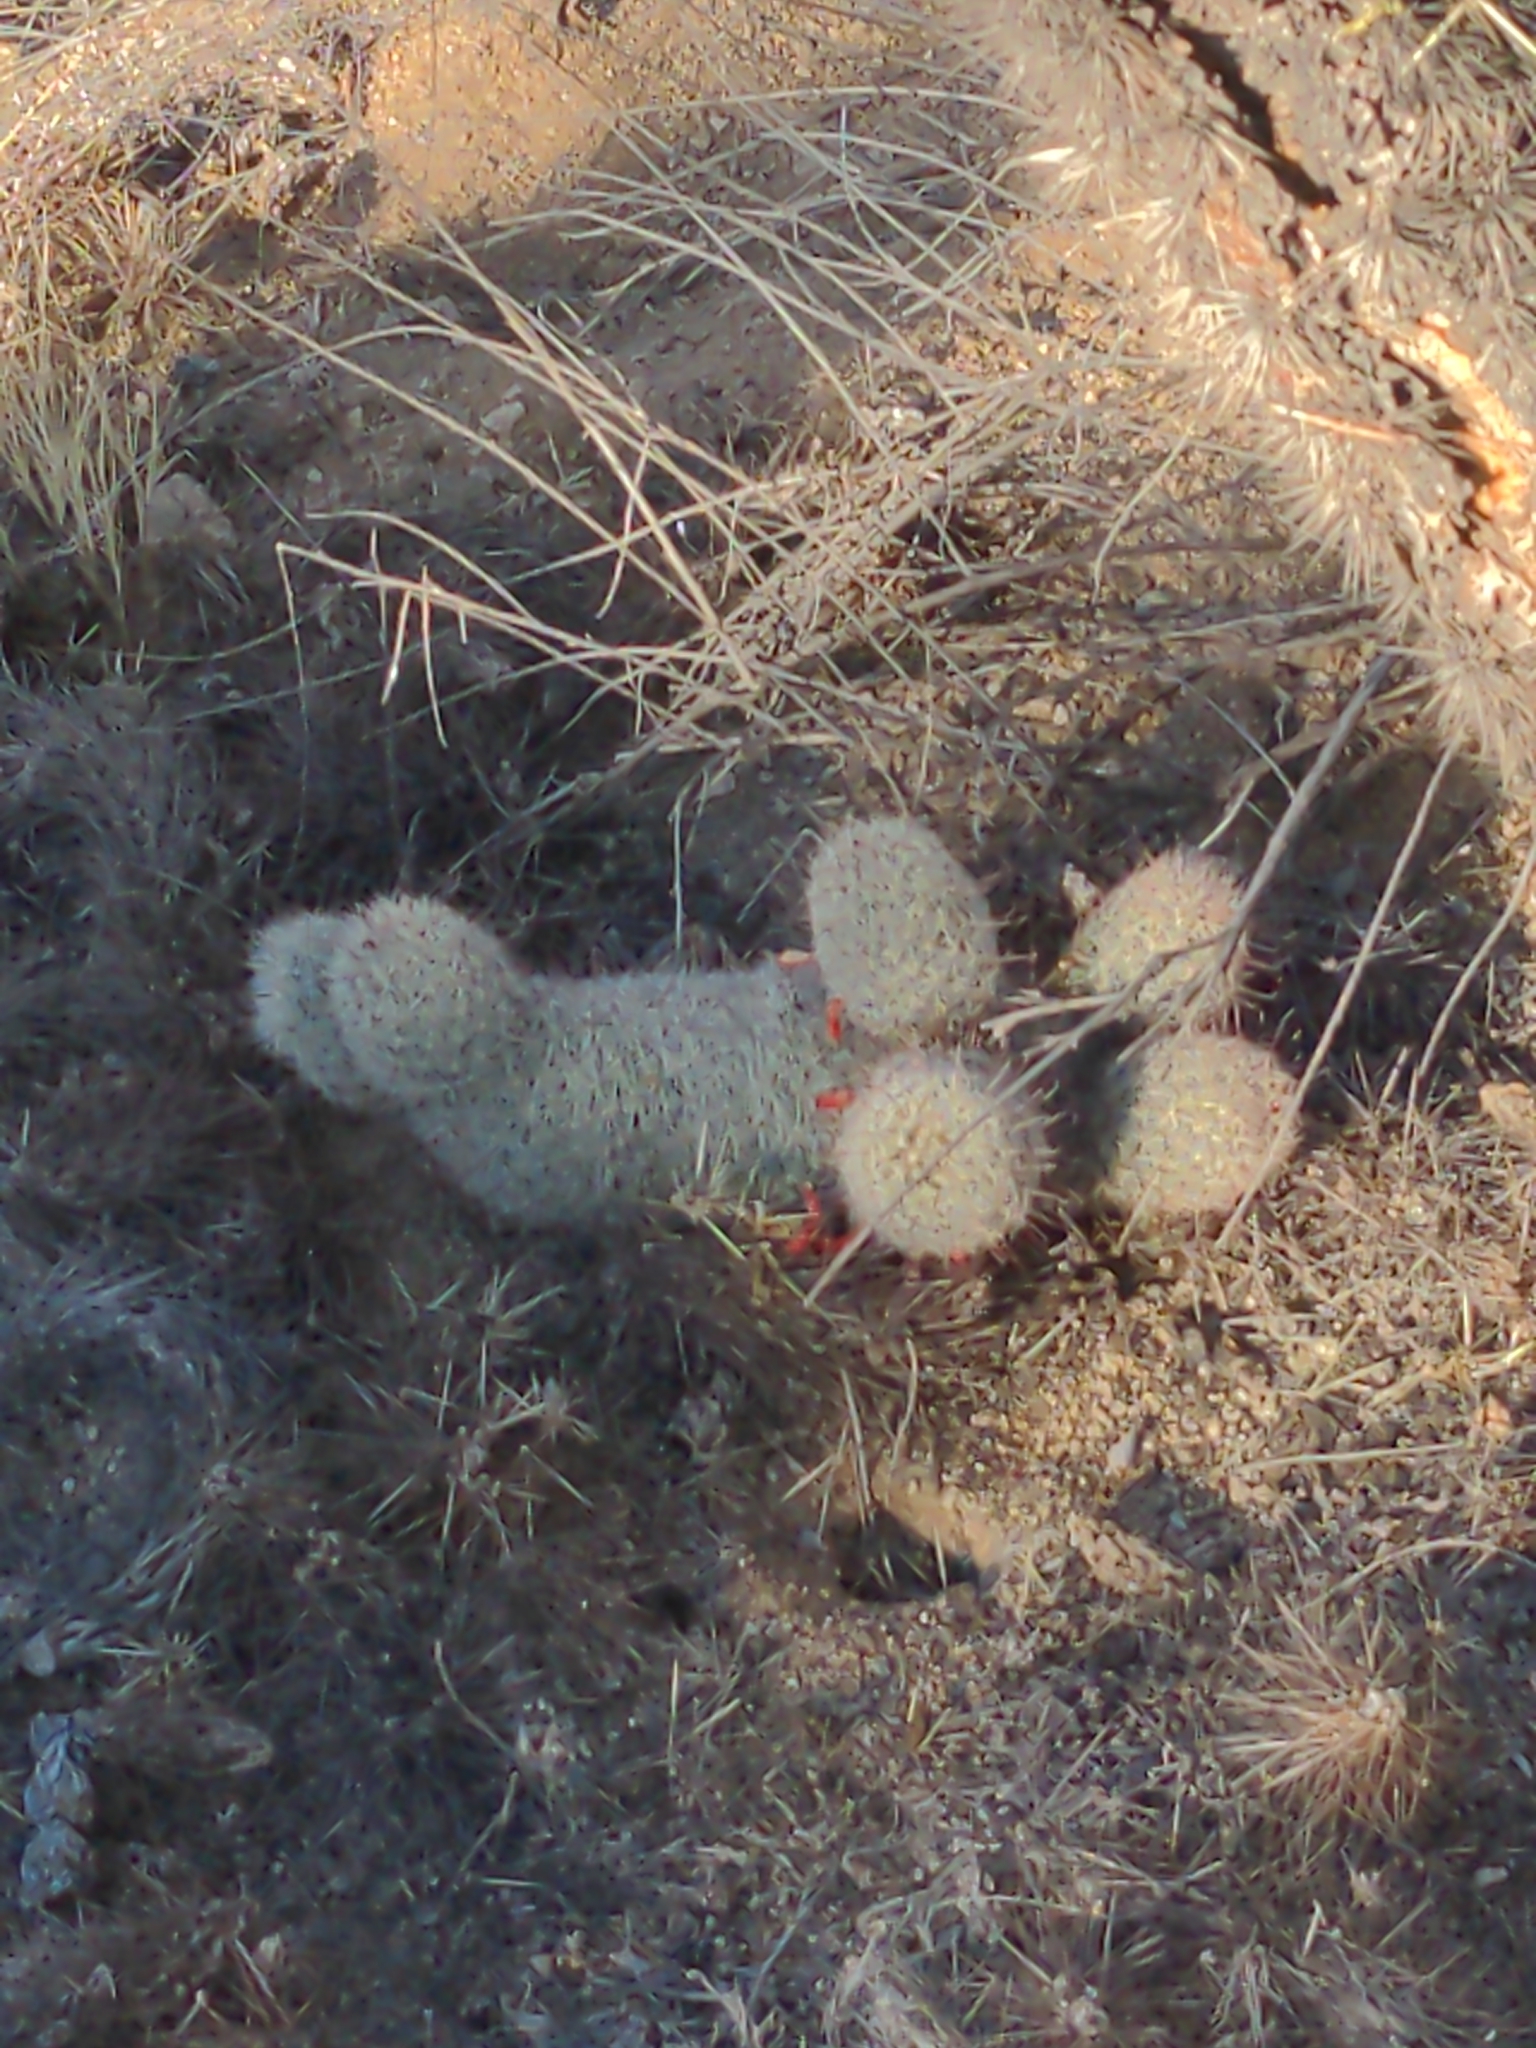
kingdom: Plantae
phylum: Tracheophyta
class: Magnoliopsida
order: Caryophyllales
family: Cactaceae
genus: Cochemiea
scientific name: Cochemiea grahamii
